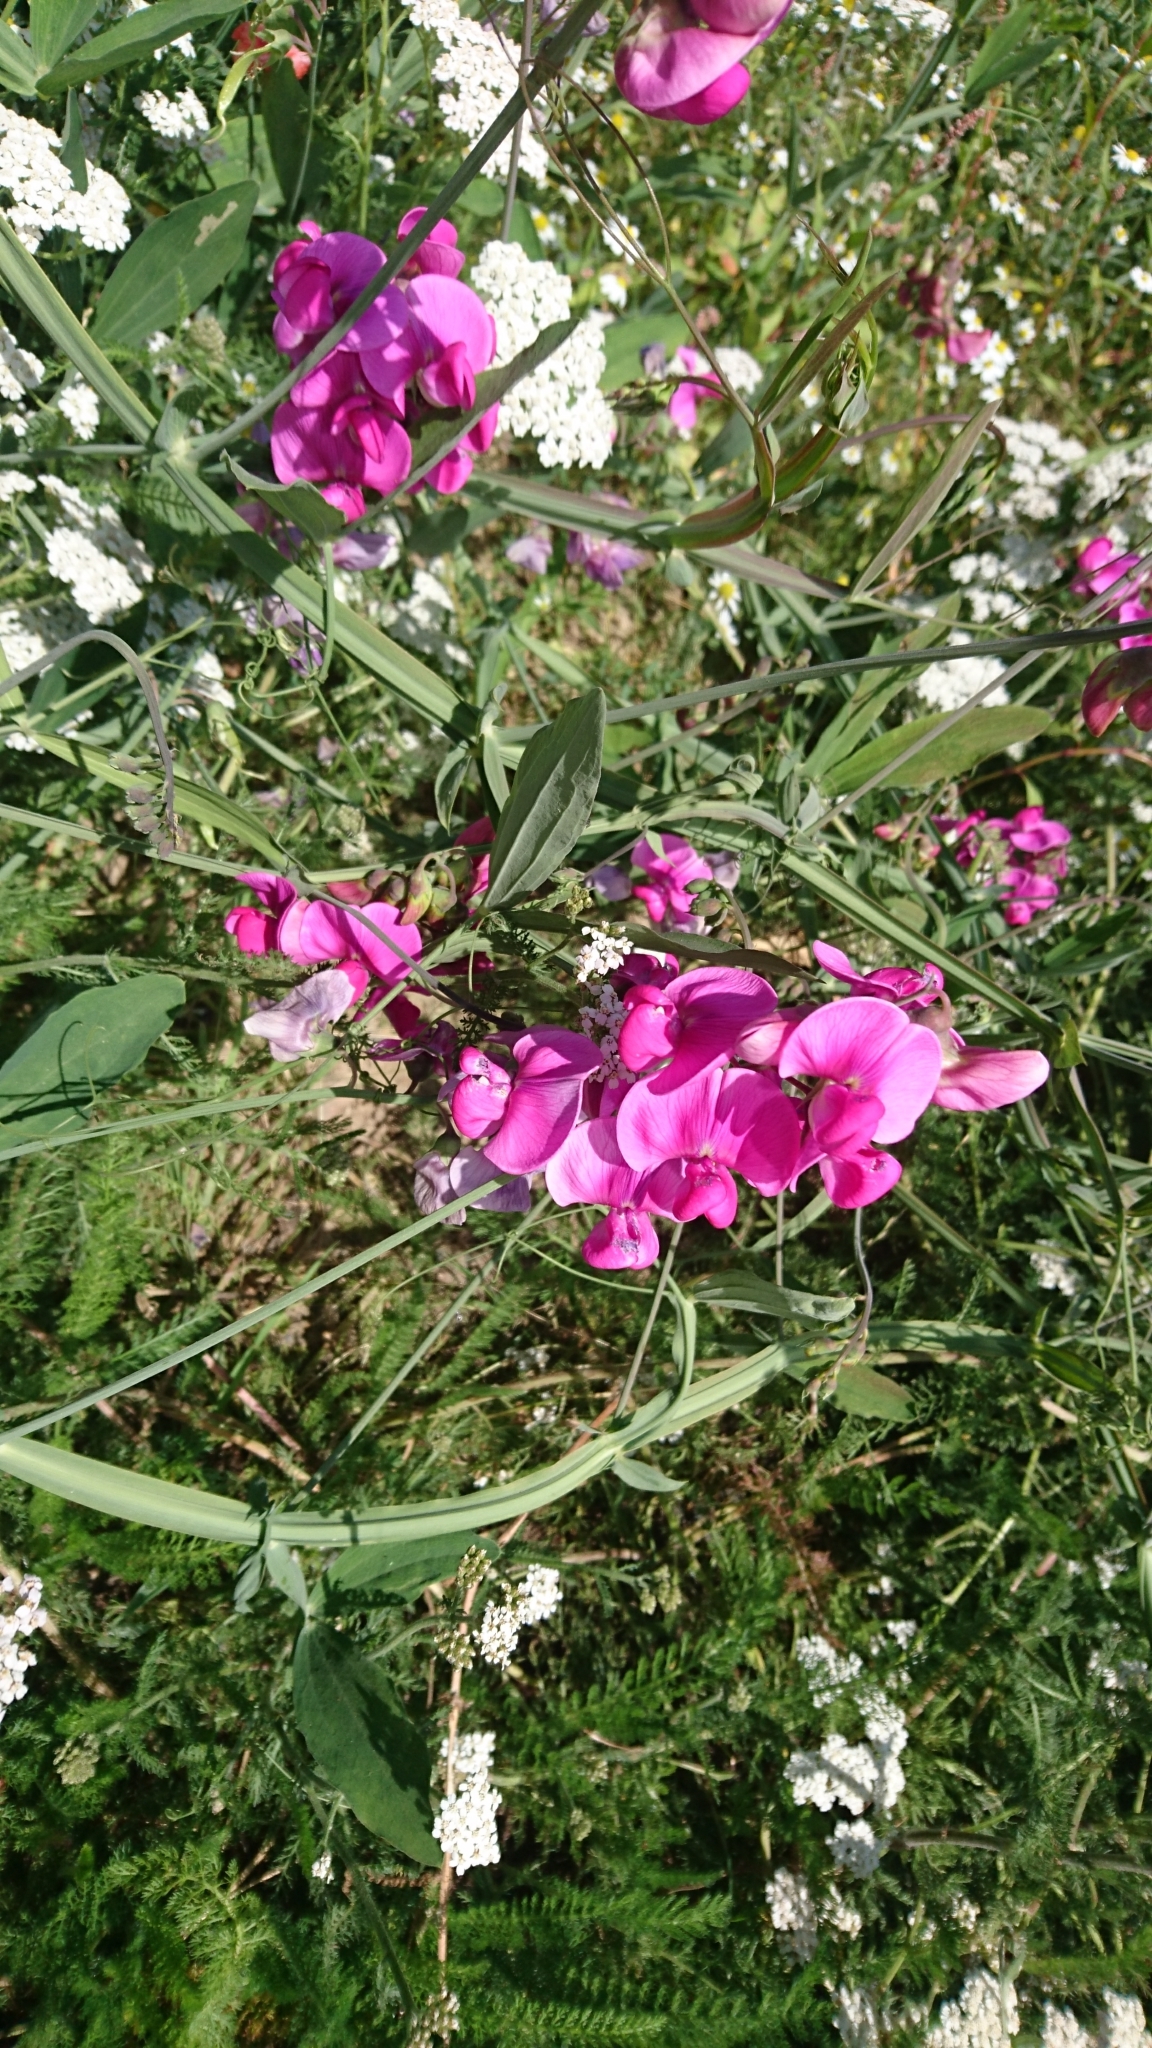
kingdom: Plantae
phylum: Tracheophyta
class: Magnoliopsida
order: Fabales
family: Fabaceae
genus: Lathyrus
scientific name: Lathyrus latifolius
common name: Perennial pea
